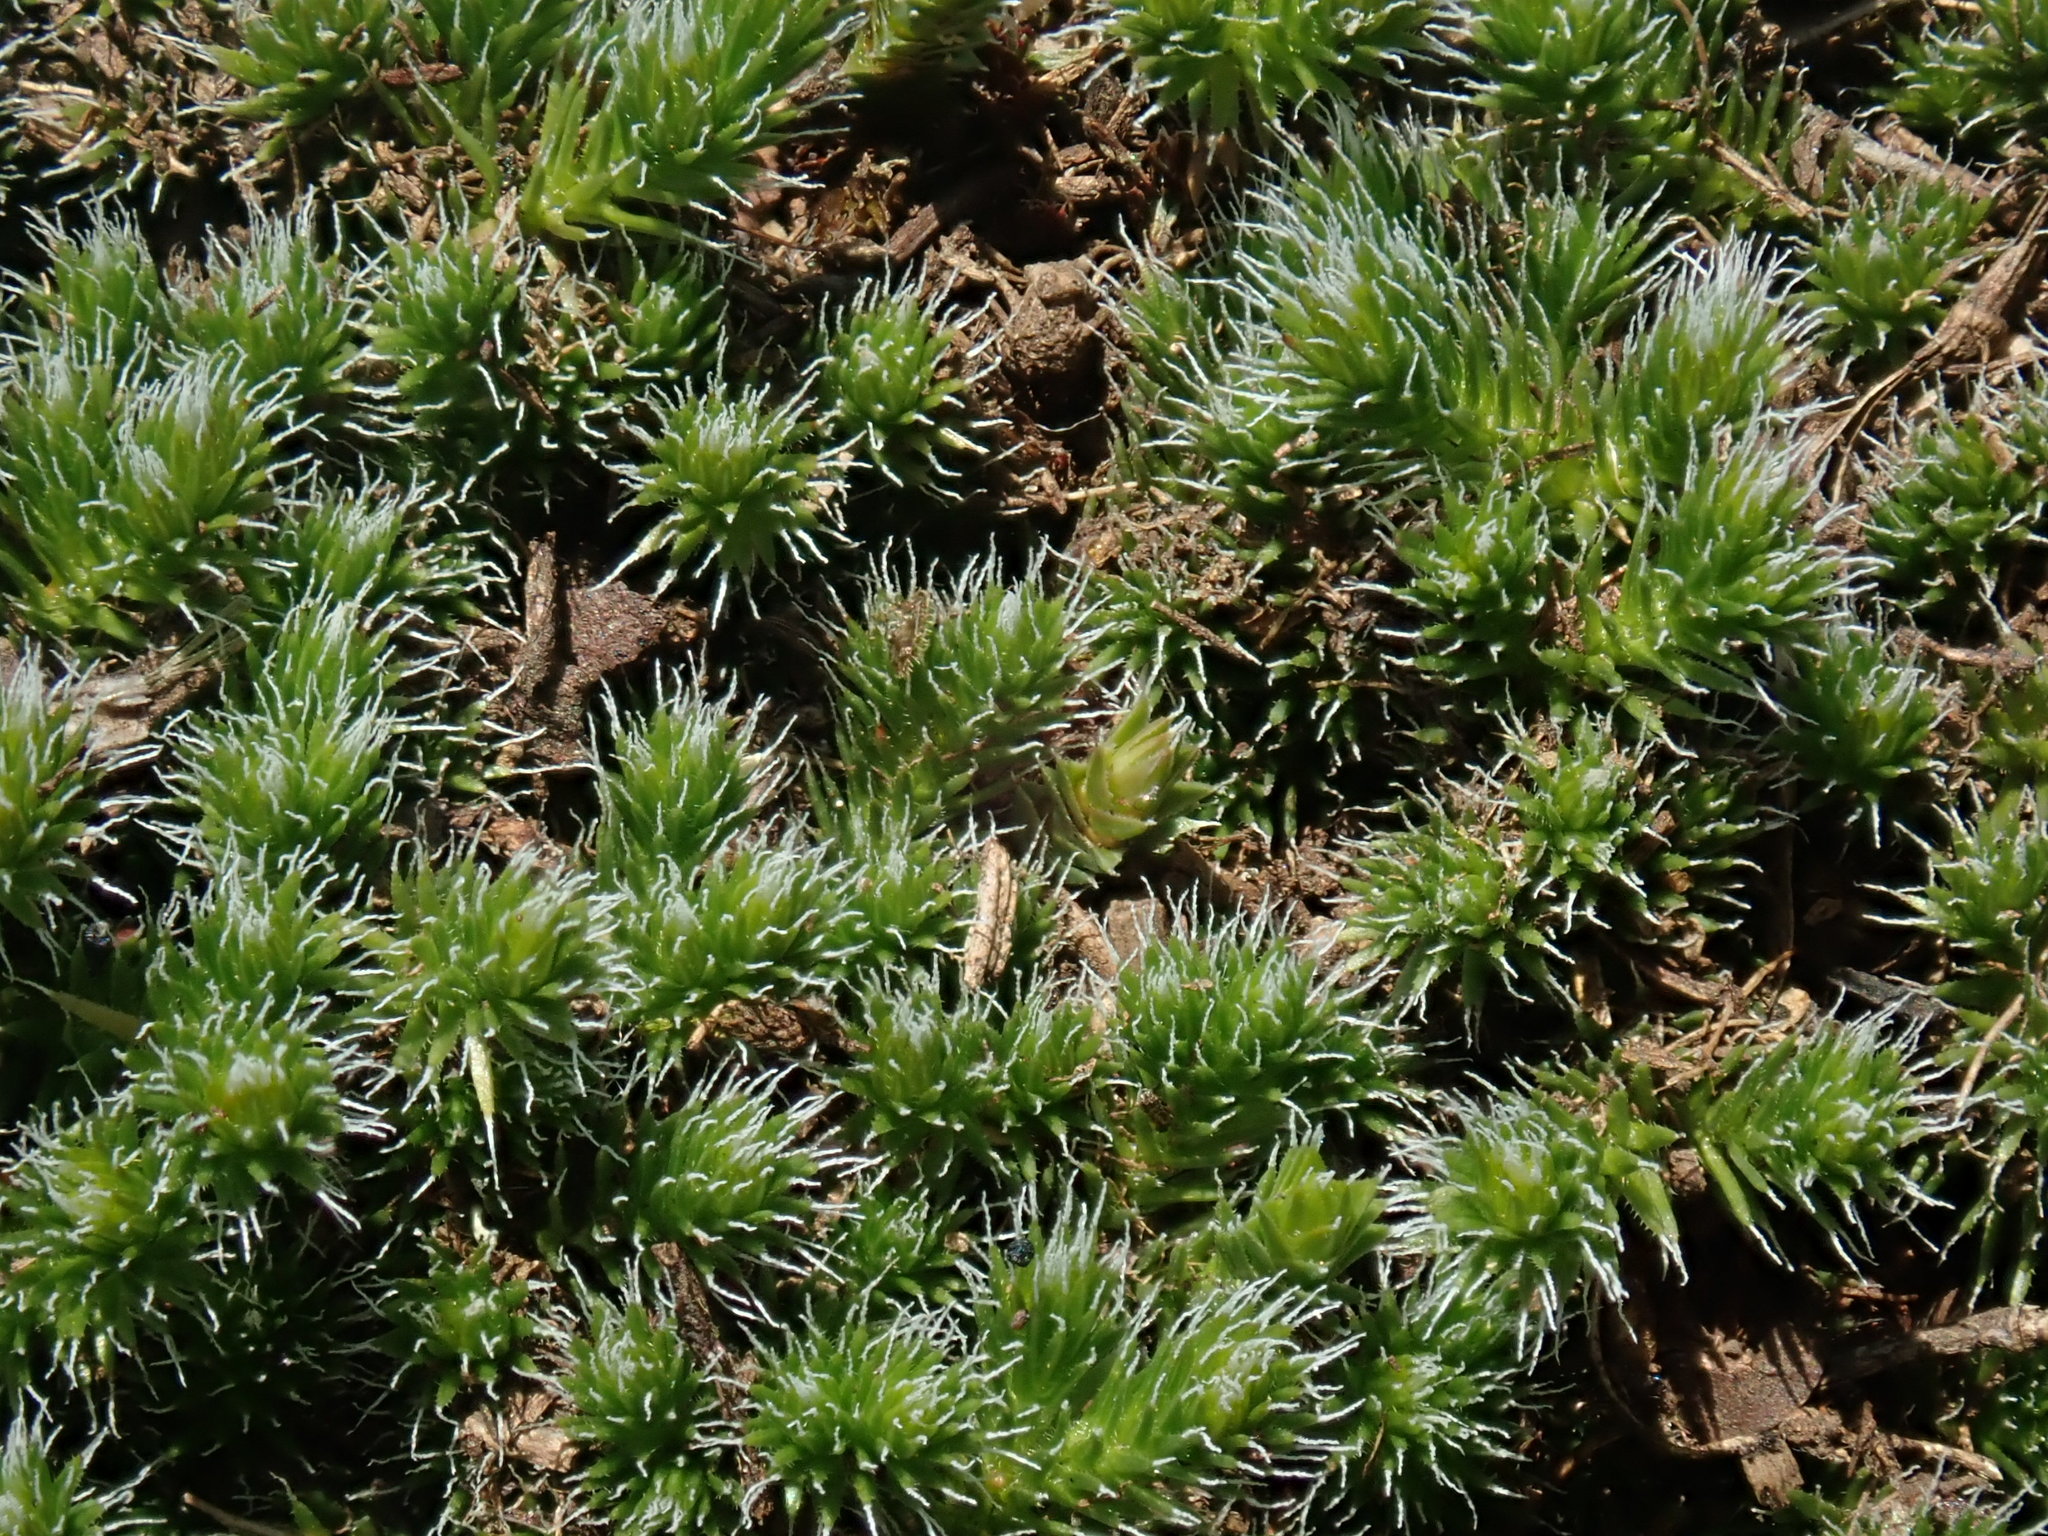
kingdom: Plantae
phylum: Tracheophyta
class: Lycopodiopsida
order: Selaginellales
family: Selaginellaceae
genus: Selaginella
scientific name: Selaginella rupestris
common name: Dwarf spikemoss
